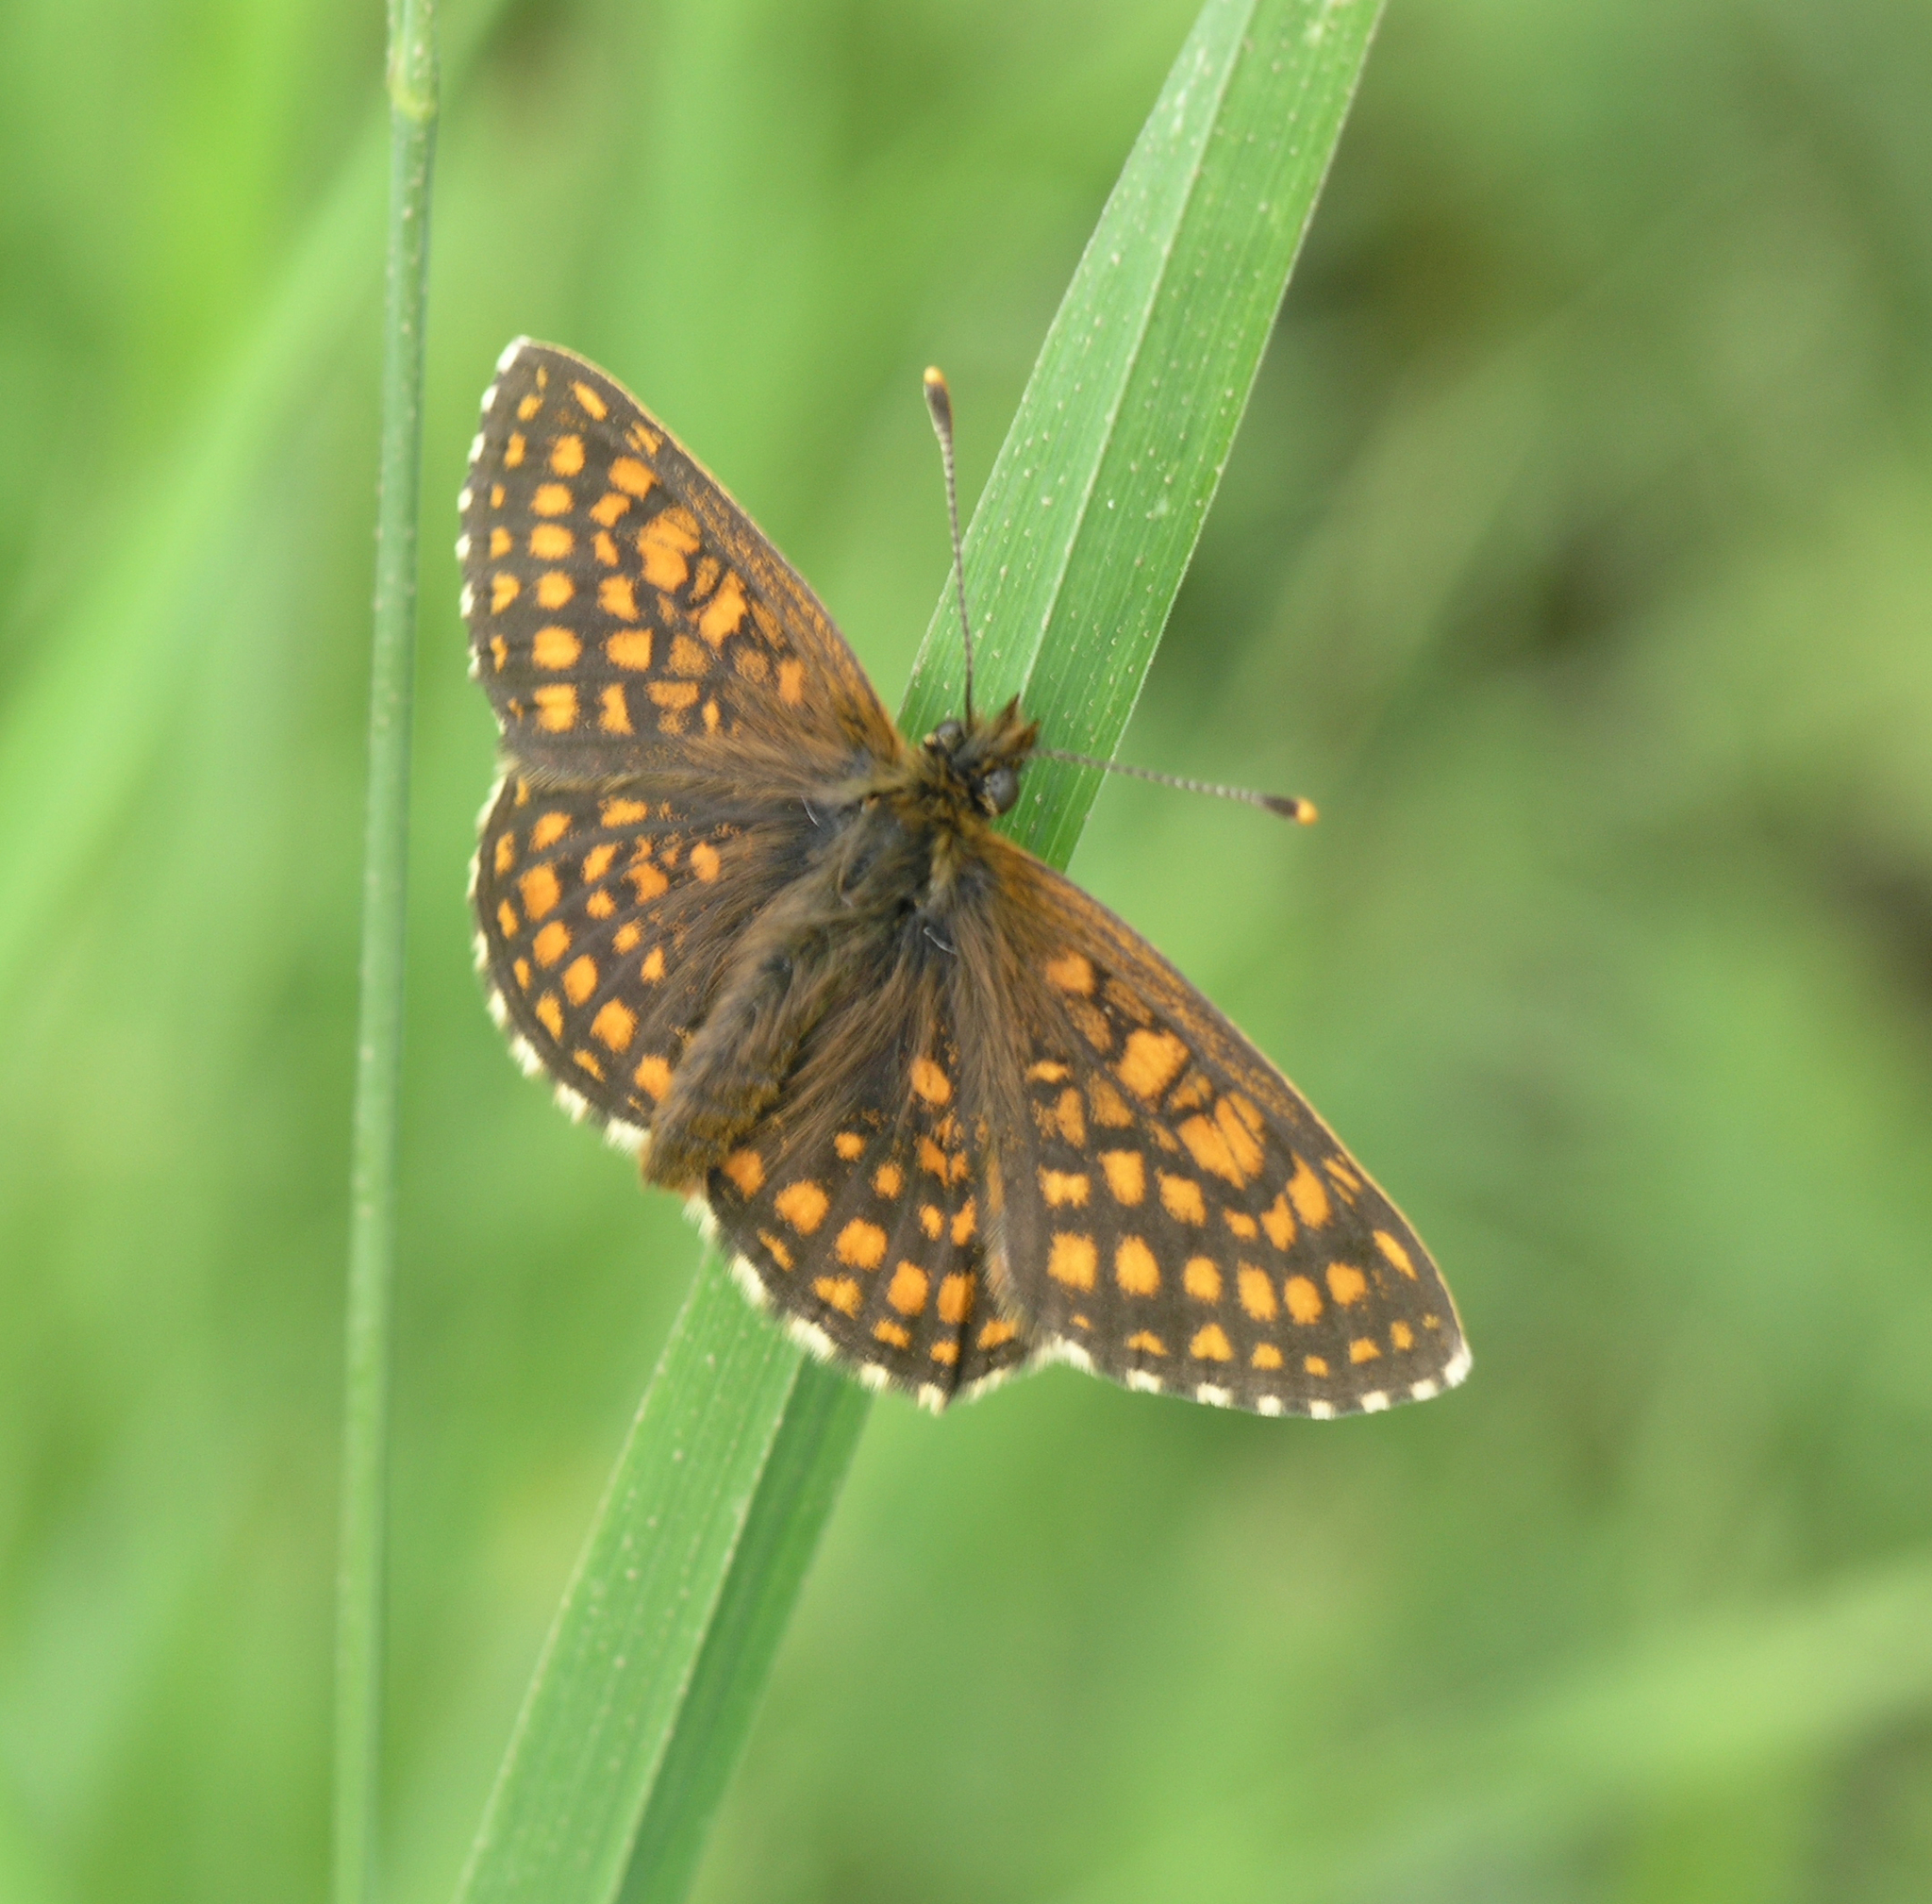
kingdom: Animalia
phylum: Arthropoda
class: Insecta
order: Lepidoptera
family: Nymphalidae
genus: Melitaea
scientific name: Melitaea
